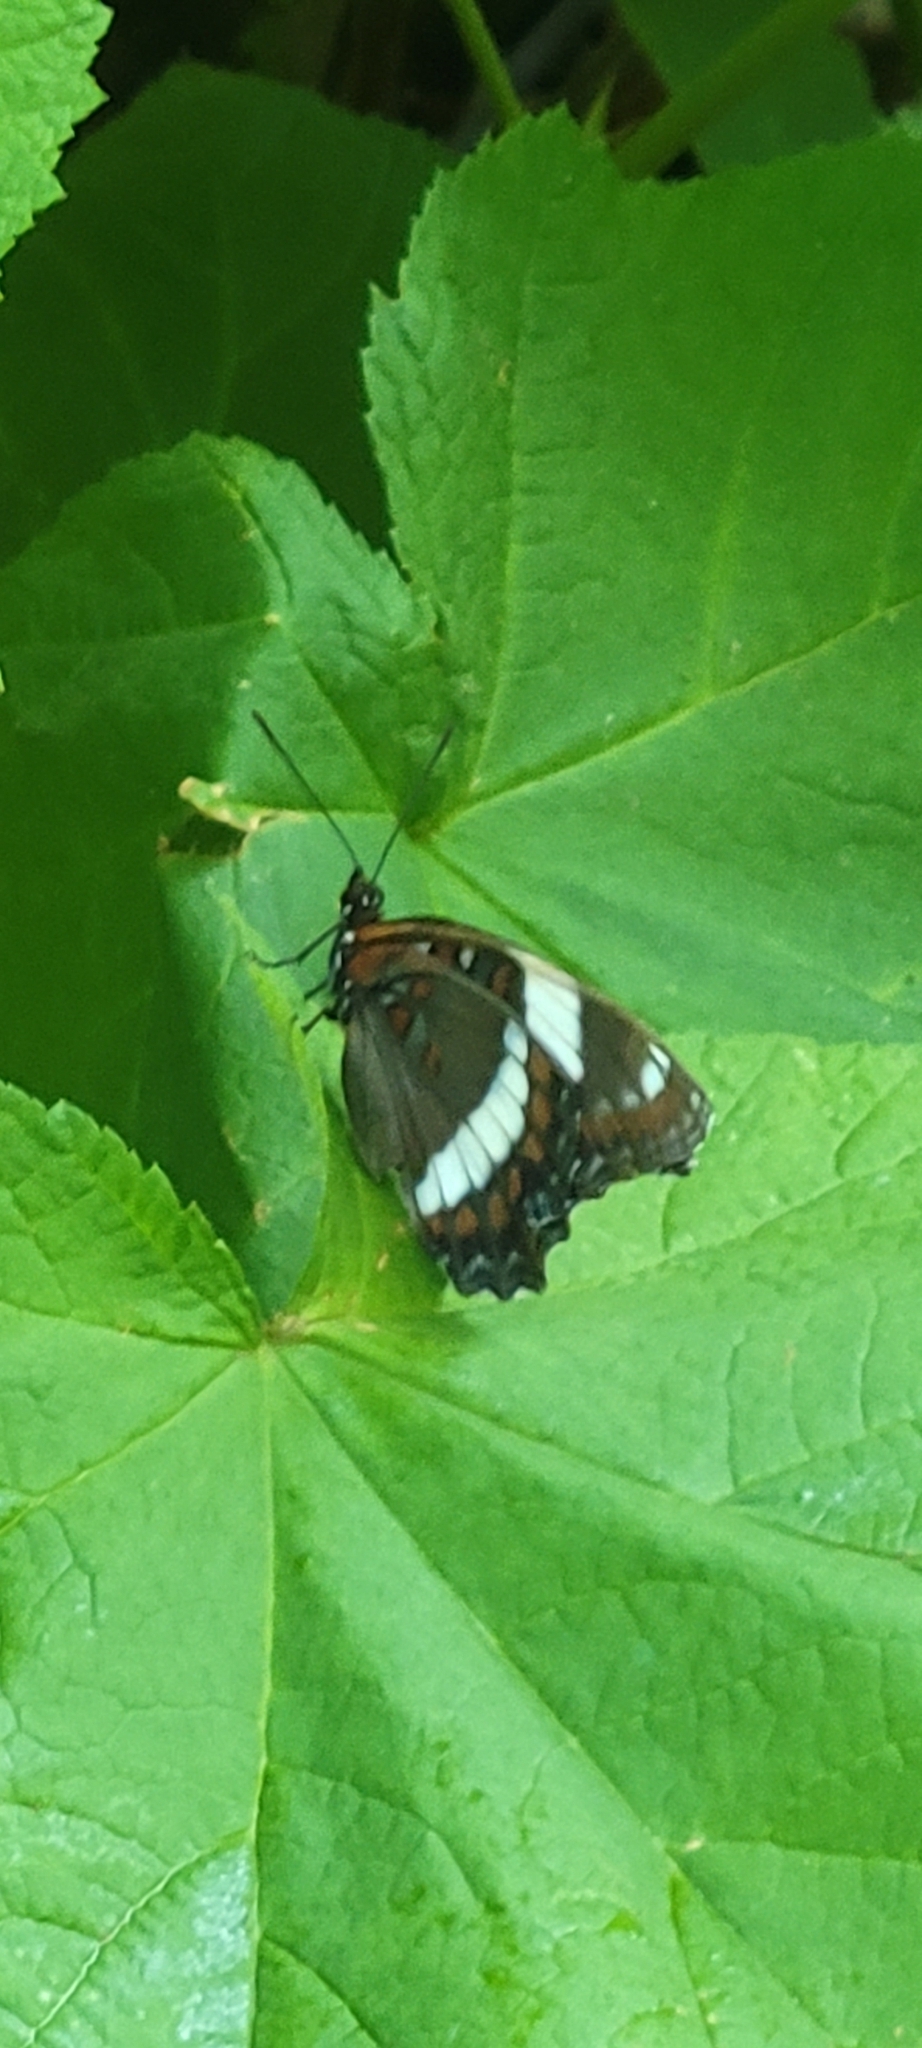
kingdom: Animalia
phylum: Arthropoda
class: Insecta
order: Lepidoptera
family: Nymphalidae
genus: Limenitis
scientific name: Limenitis arthemis
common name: Red-spotted admiral
